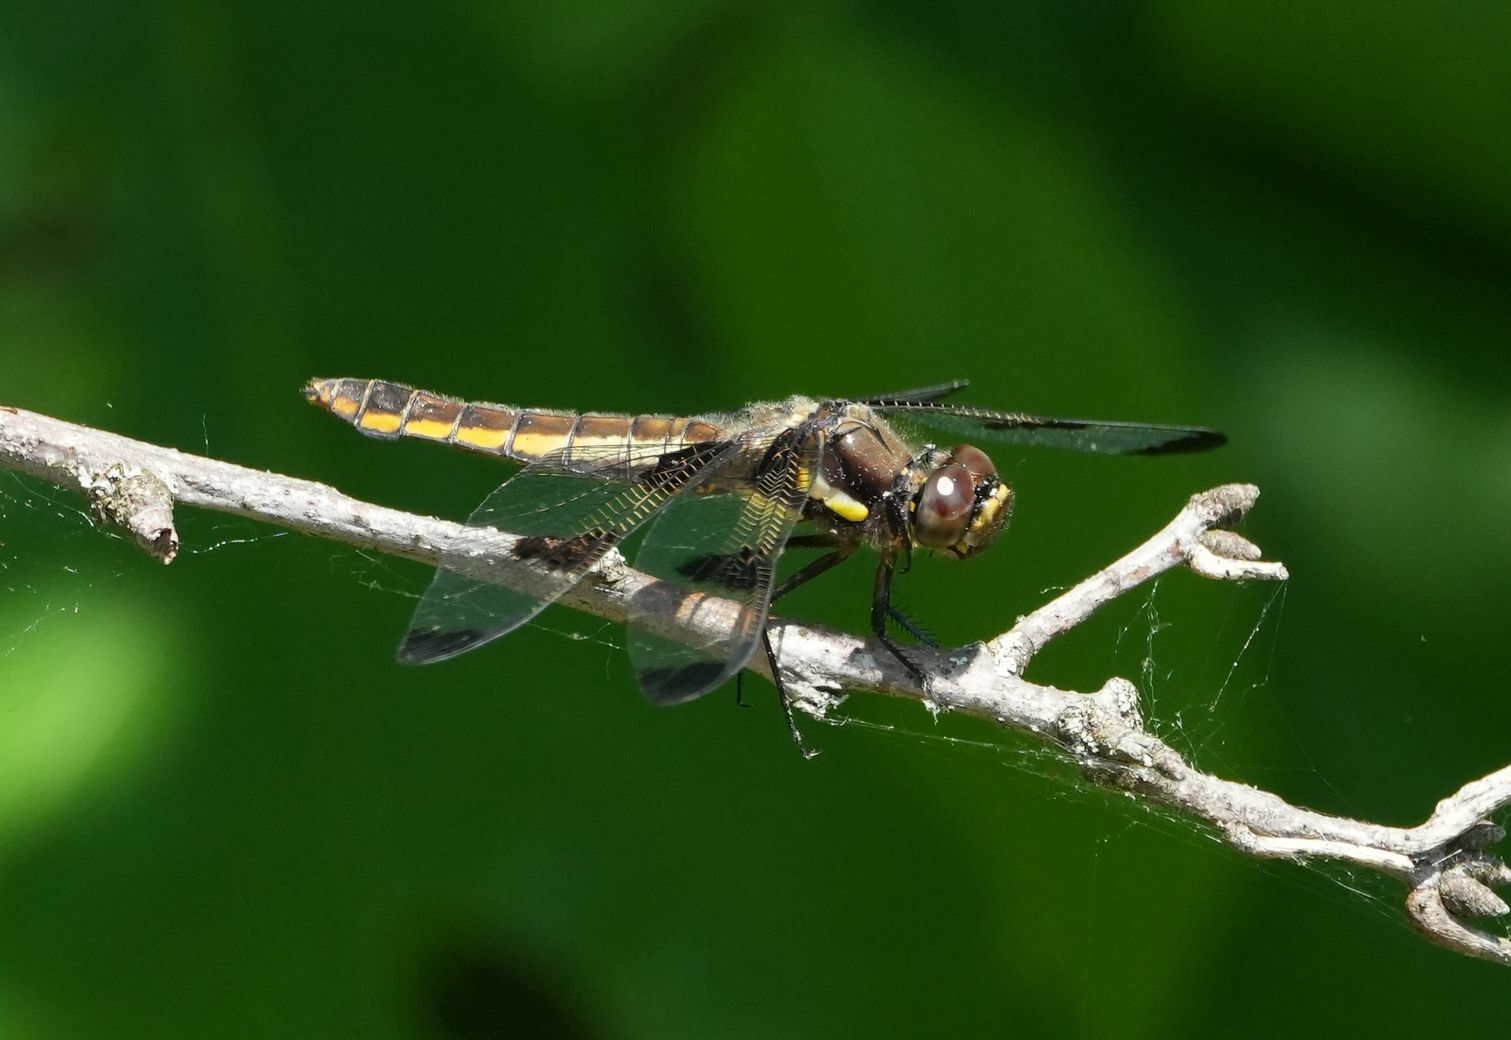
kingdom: Animalia
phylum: Arthropoda
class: Insecta
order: Odonata
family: Libellulidae
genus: Libellula
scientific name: Libellula pulchella
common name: Twelve-spotted skimmer
